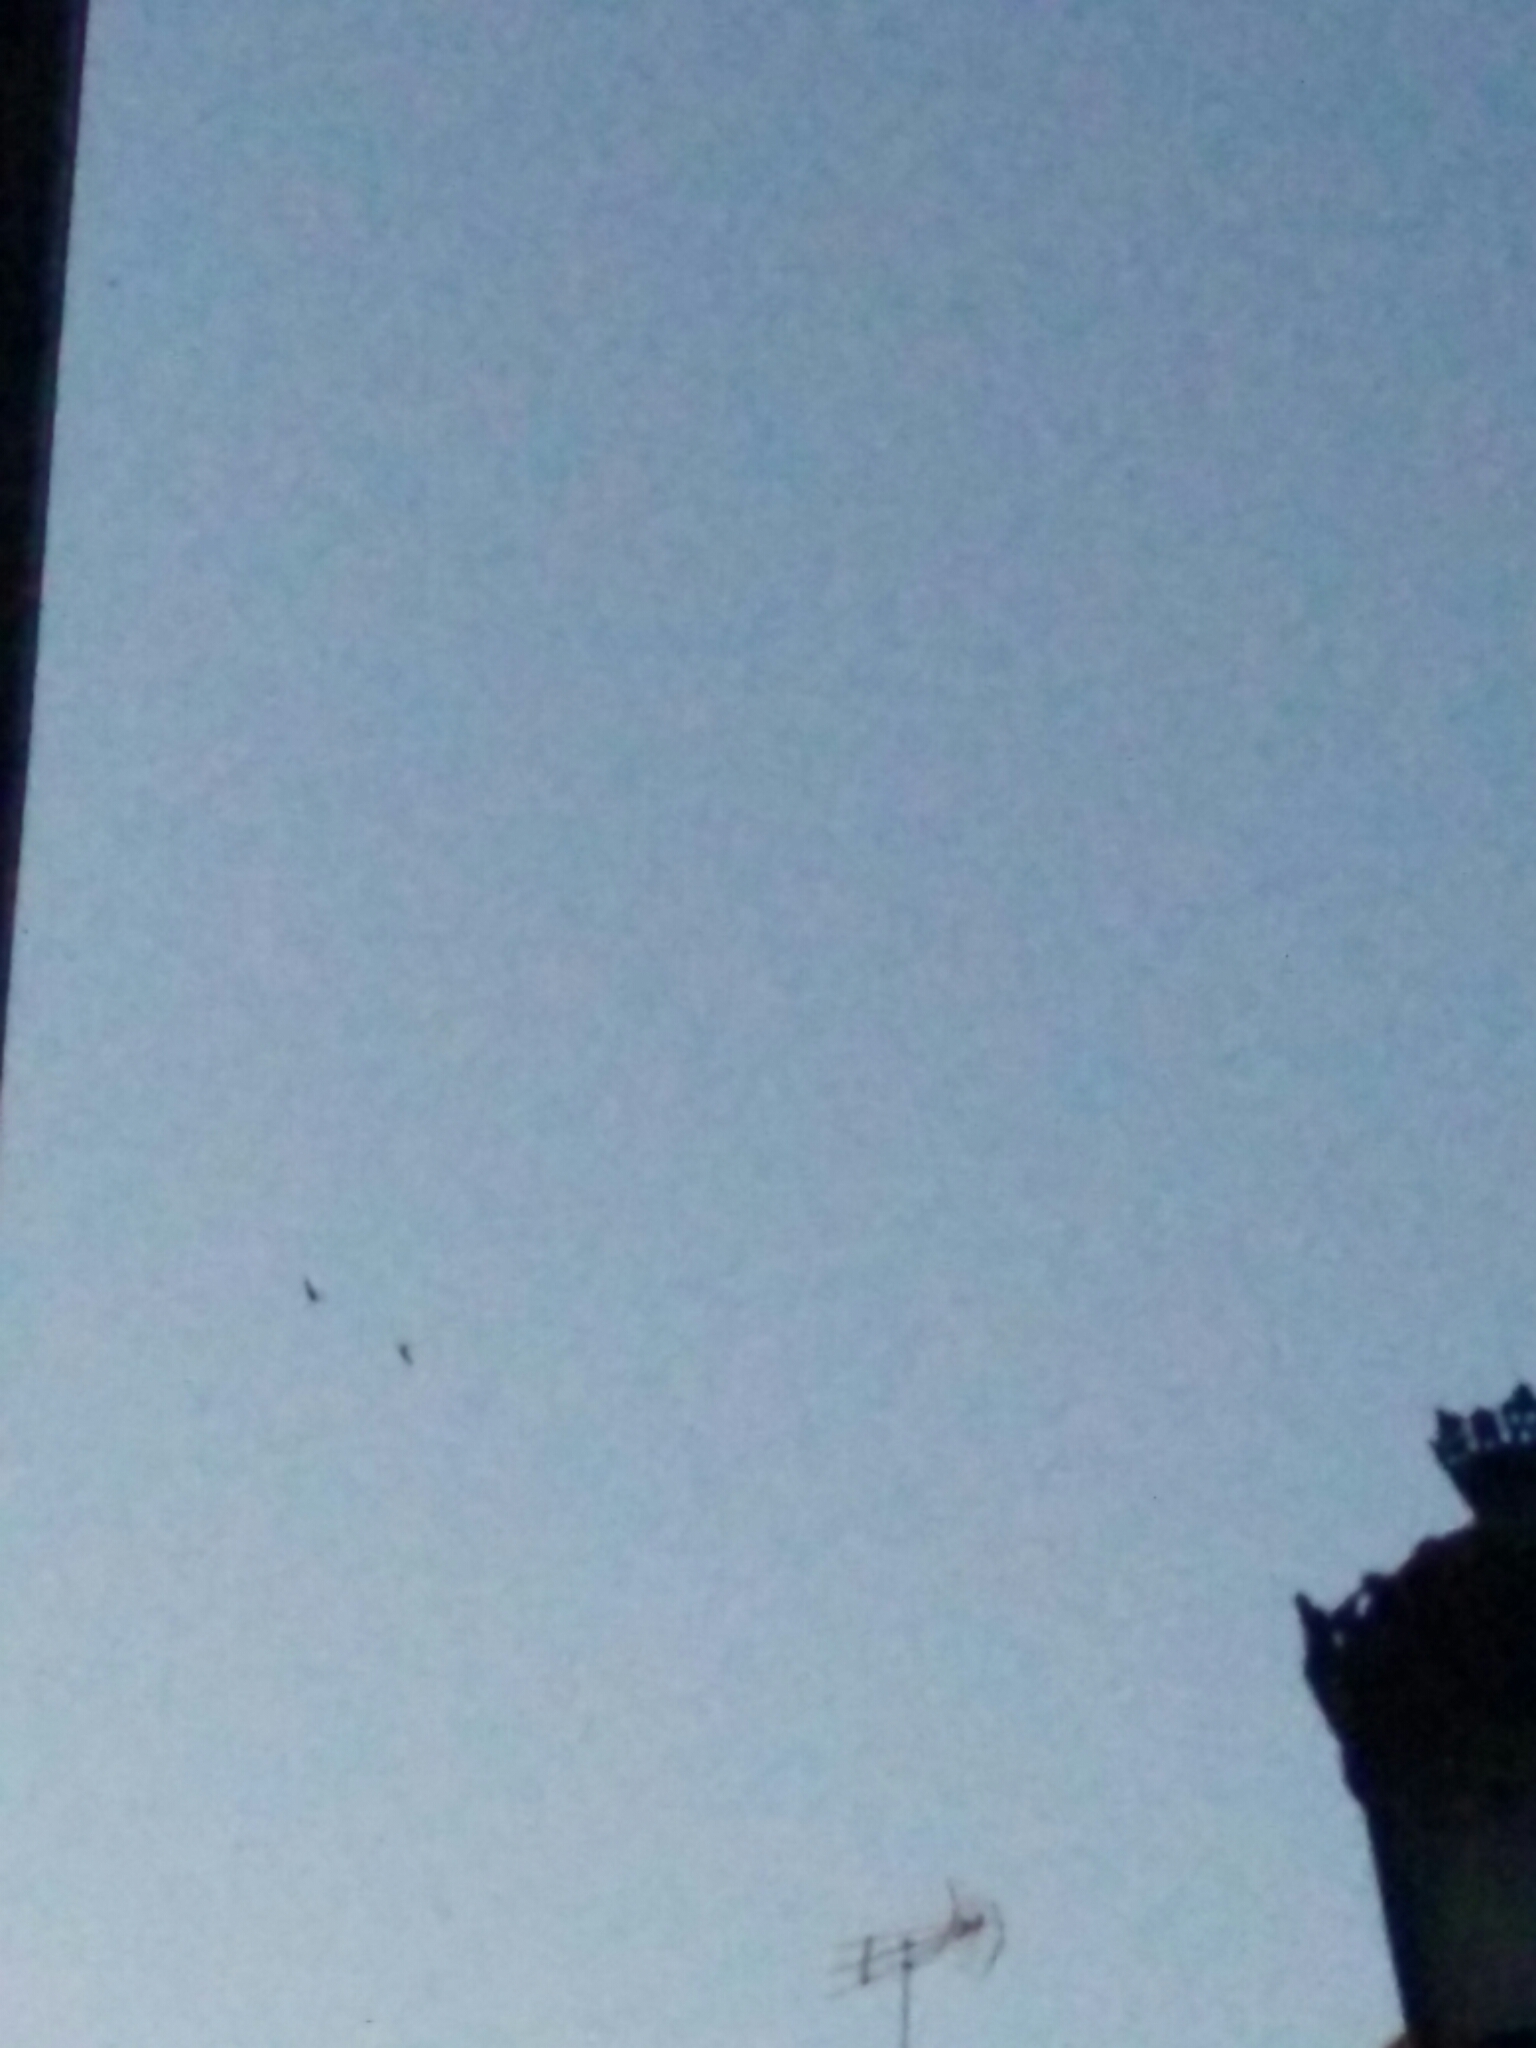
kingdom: Animalia
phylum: Chordata
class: Aves
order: Apodiformes
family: Apodidae
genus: Apus
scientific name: Apus apus
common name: Common swift
